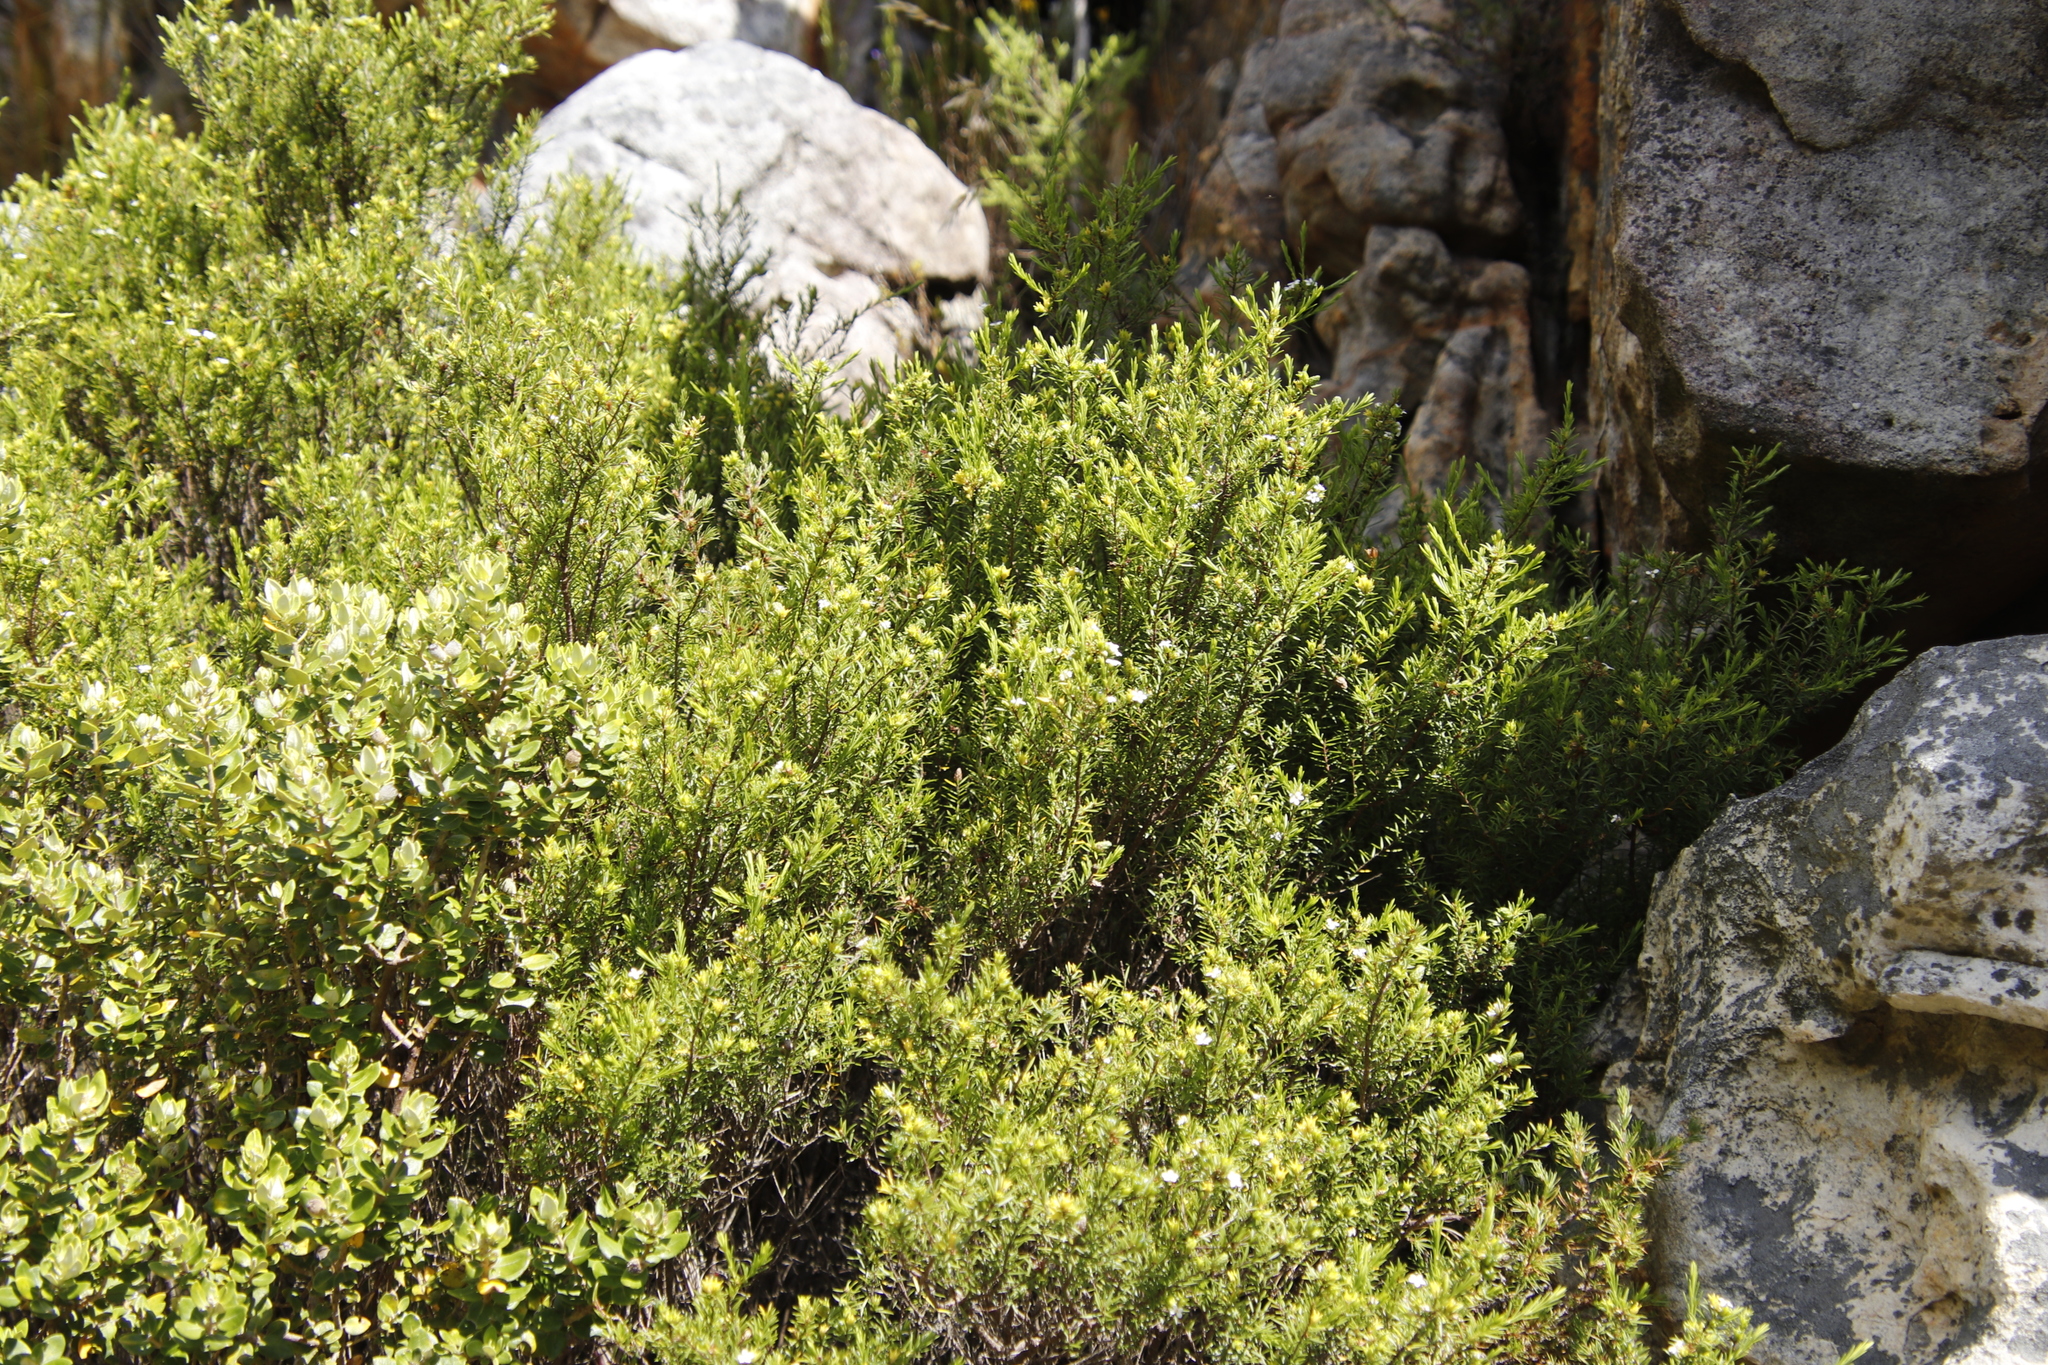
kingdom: Plantae
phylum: Tracheophyta
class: Magnoliopsida
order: Sapindales
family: Rutaceae
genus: Coleonema
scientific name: Coleonema album
